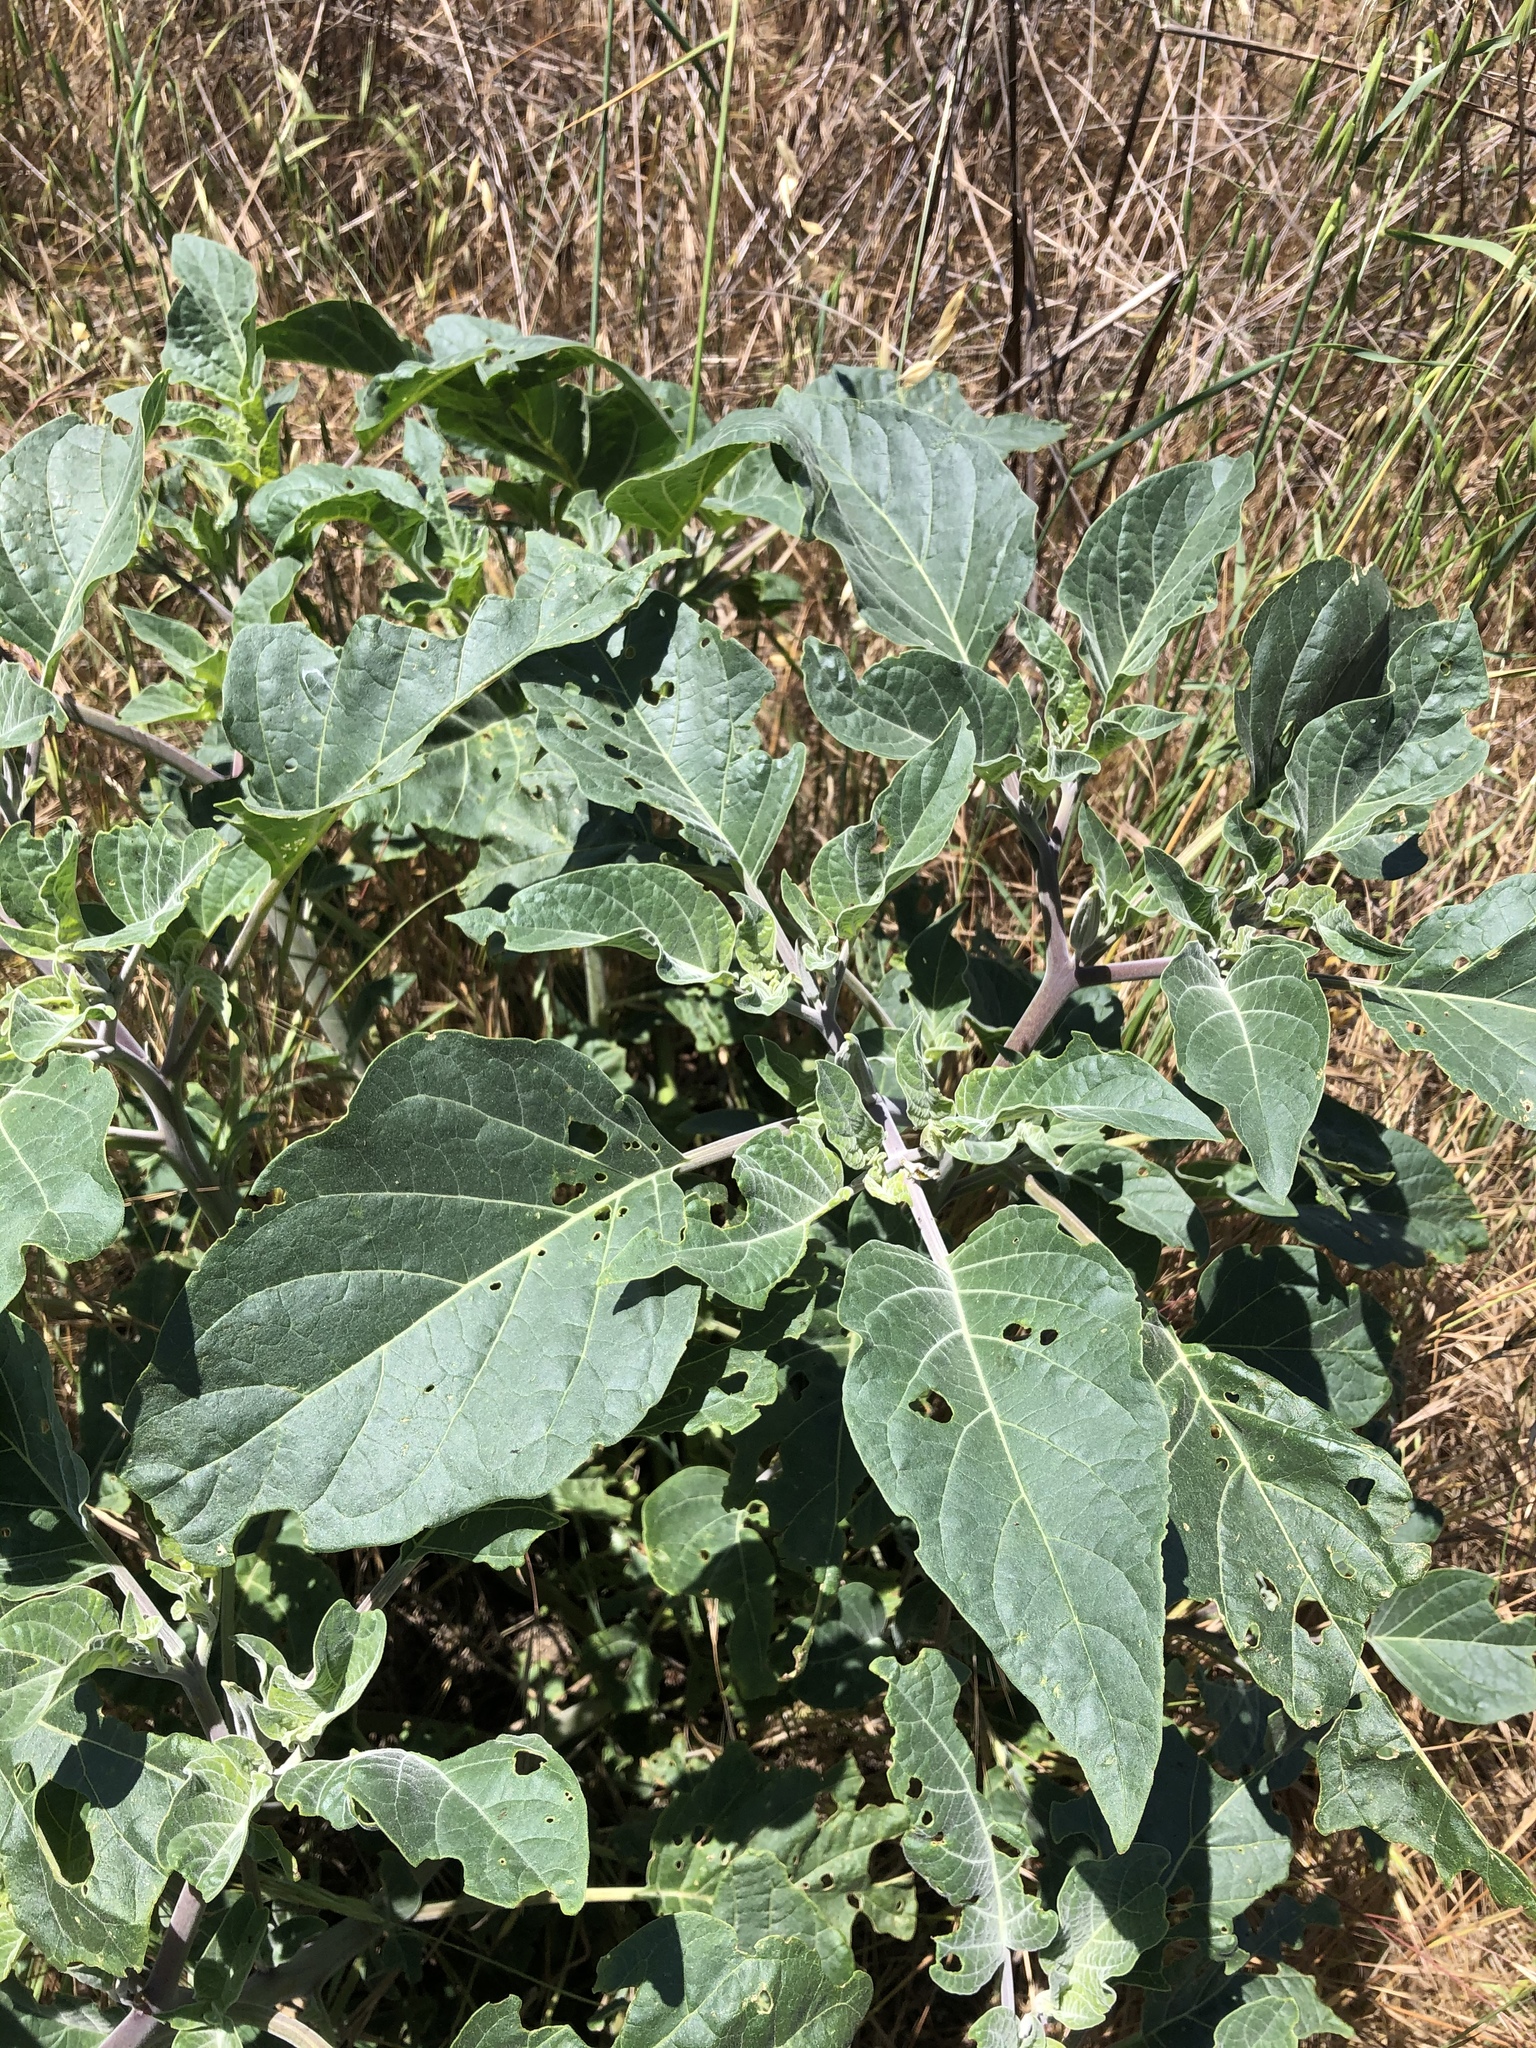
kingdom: Plantae
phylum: Tracheophyta
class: Magnoliopsida
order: Solanales
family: Solanaceae
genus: Datura
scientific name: Datura wrightii
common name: Sacred thorn-apple
